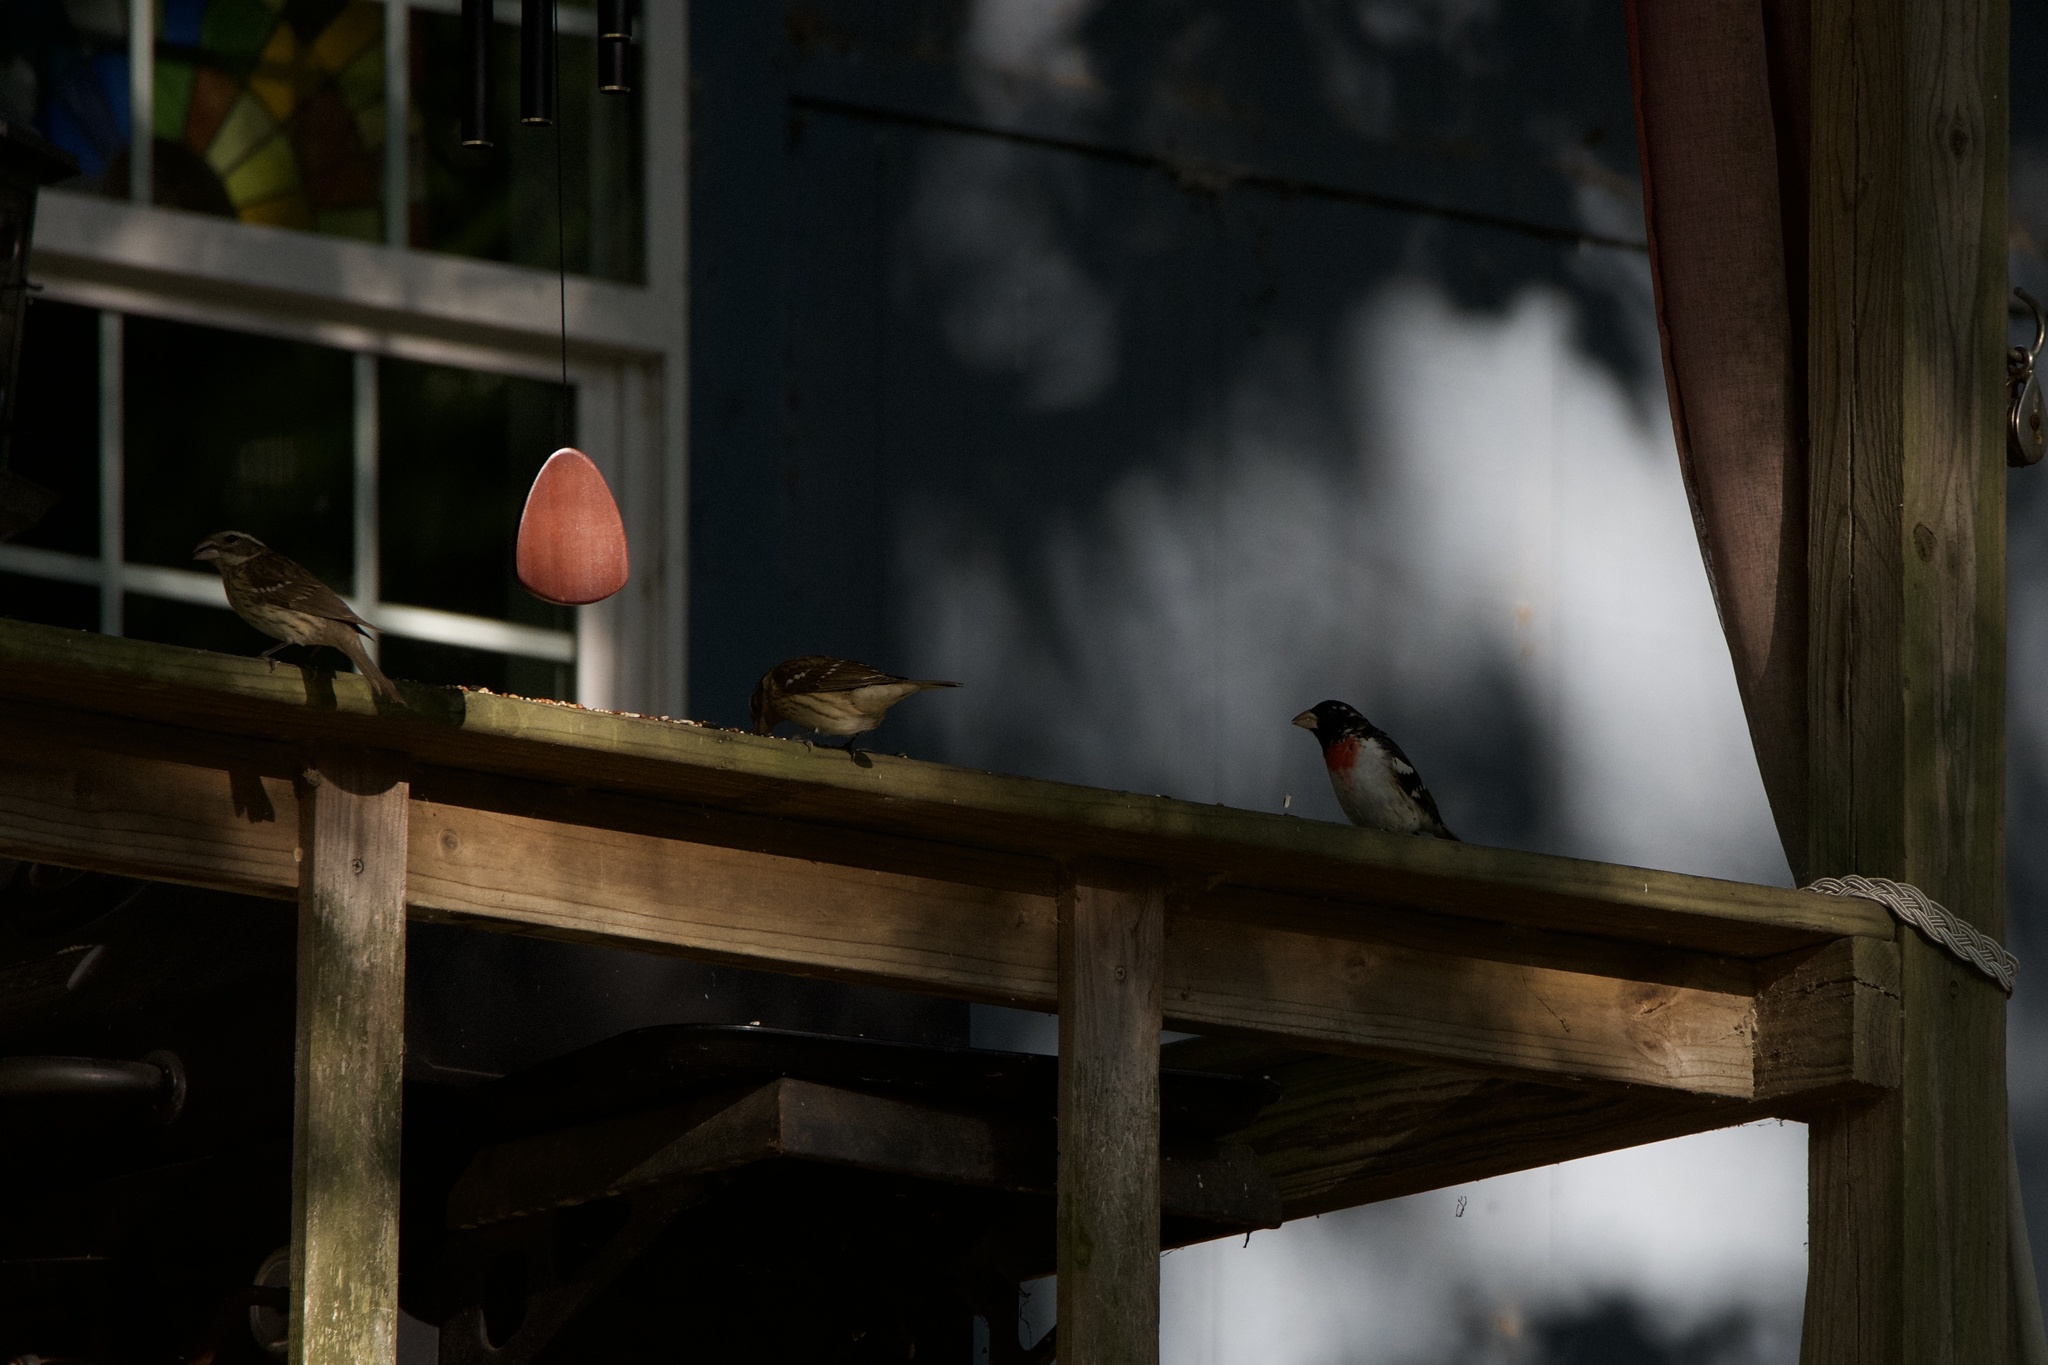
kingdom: Animalia
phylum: Chordata
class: Aves
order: Passeriformes
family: Cardinalidae
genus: Pheucticus
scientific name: Pheucticus ludovicianus
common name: Rose-breasted grosbeak
